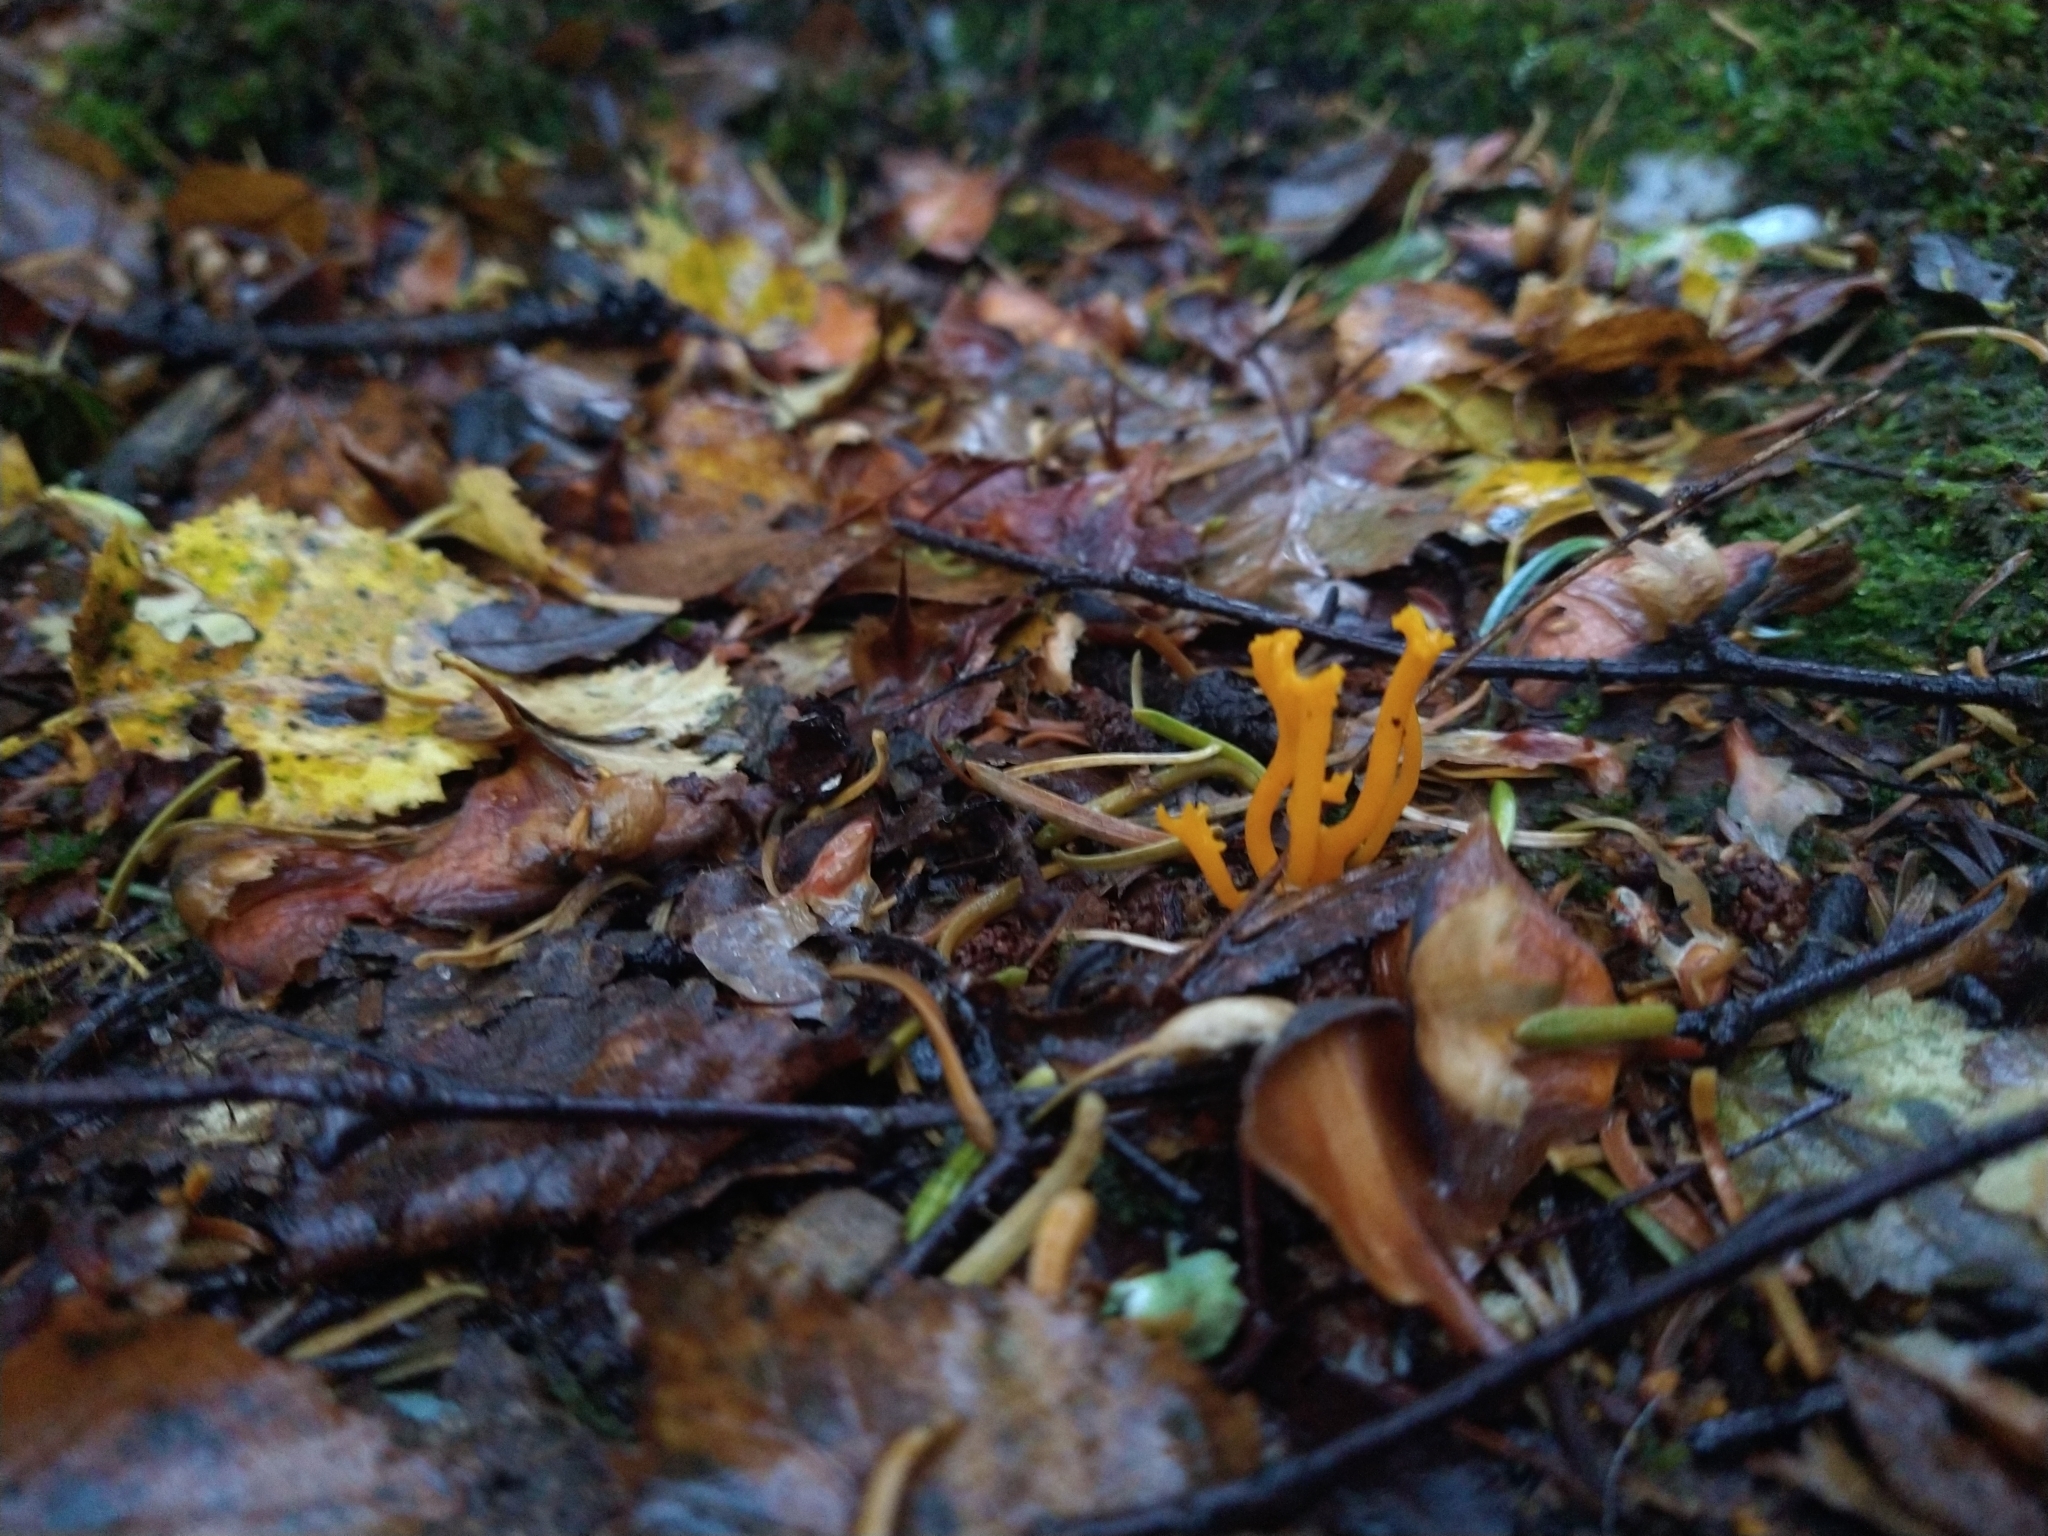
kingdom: Fungi
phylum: Basidiomycota
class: Dacrymycetes
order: Dacrymycetales
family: Dacrymycetaceae
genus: Calocera
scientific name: Calocera viscosa
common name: Yellow stagshorn
